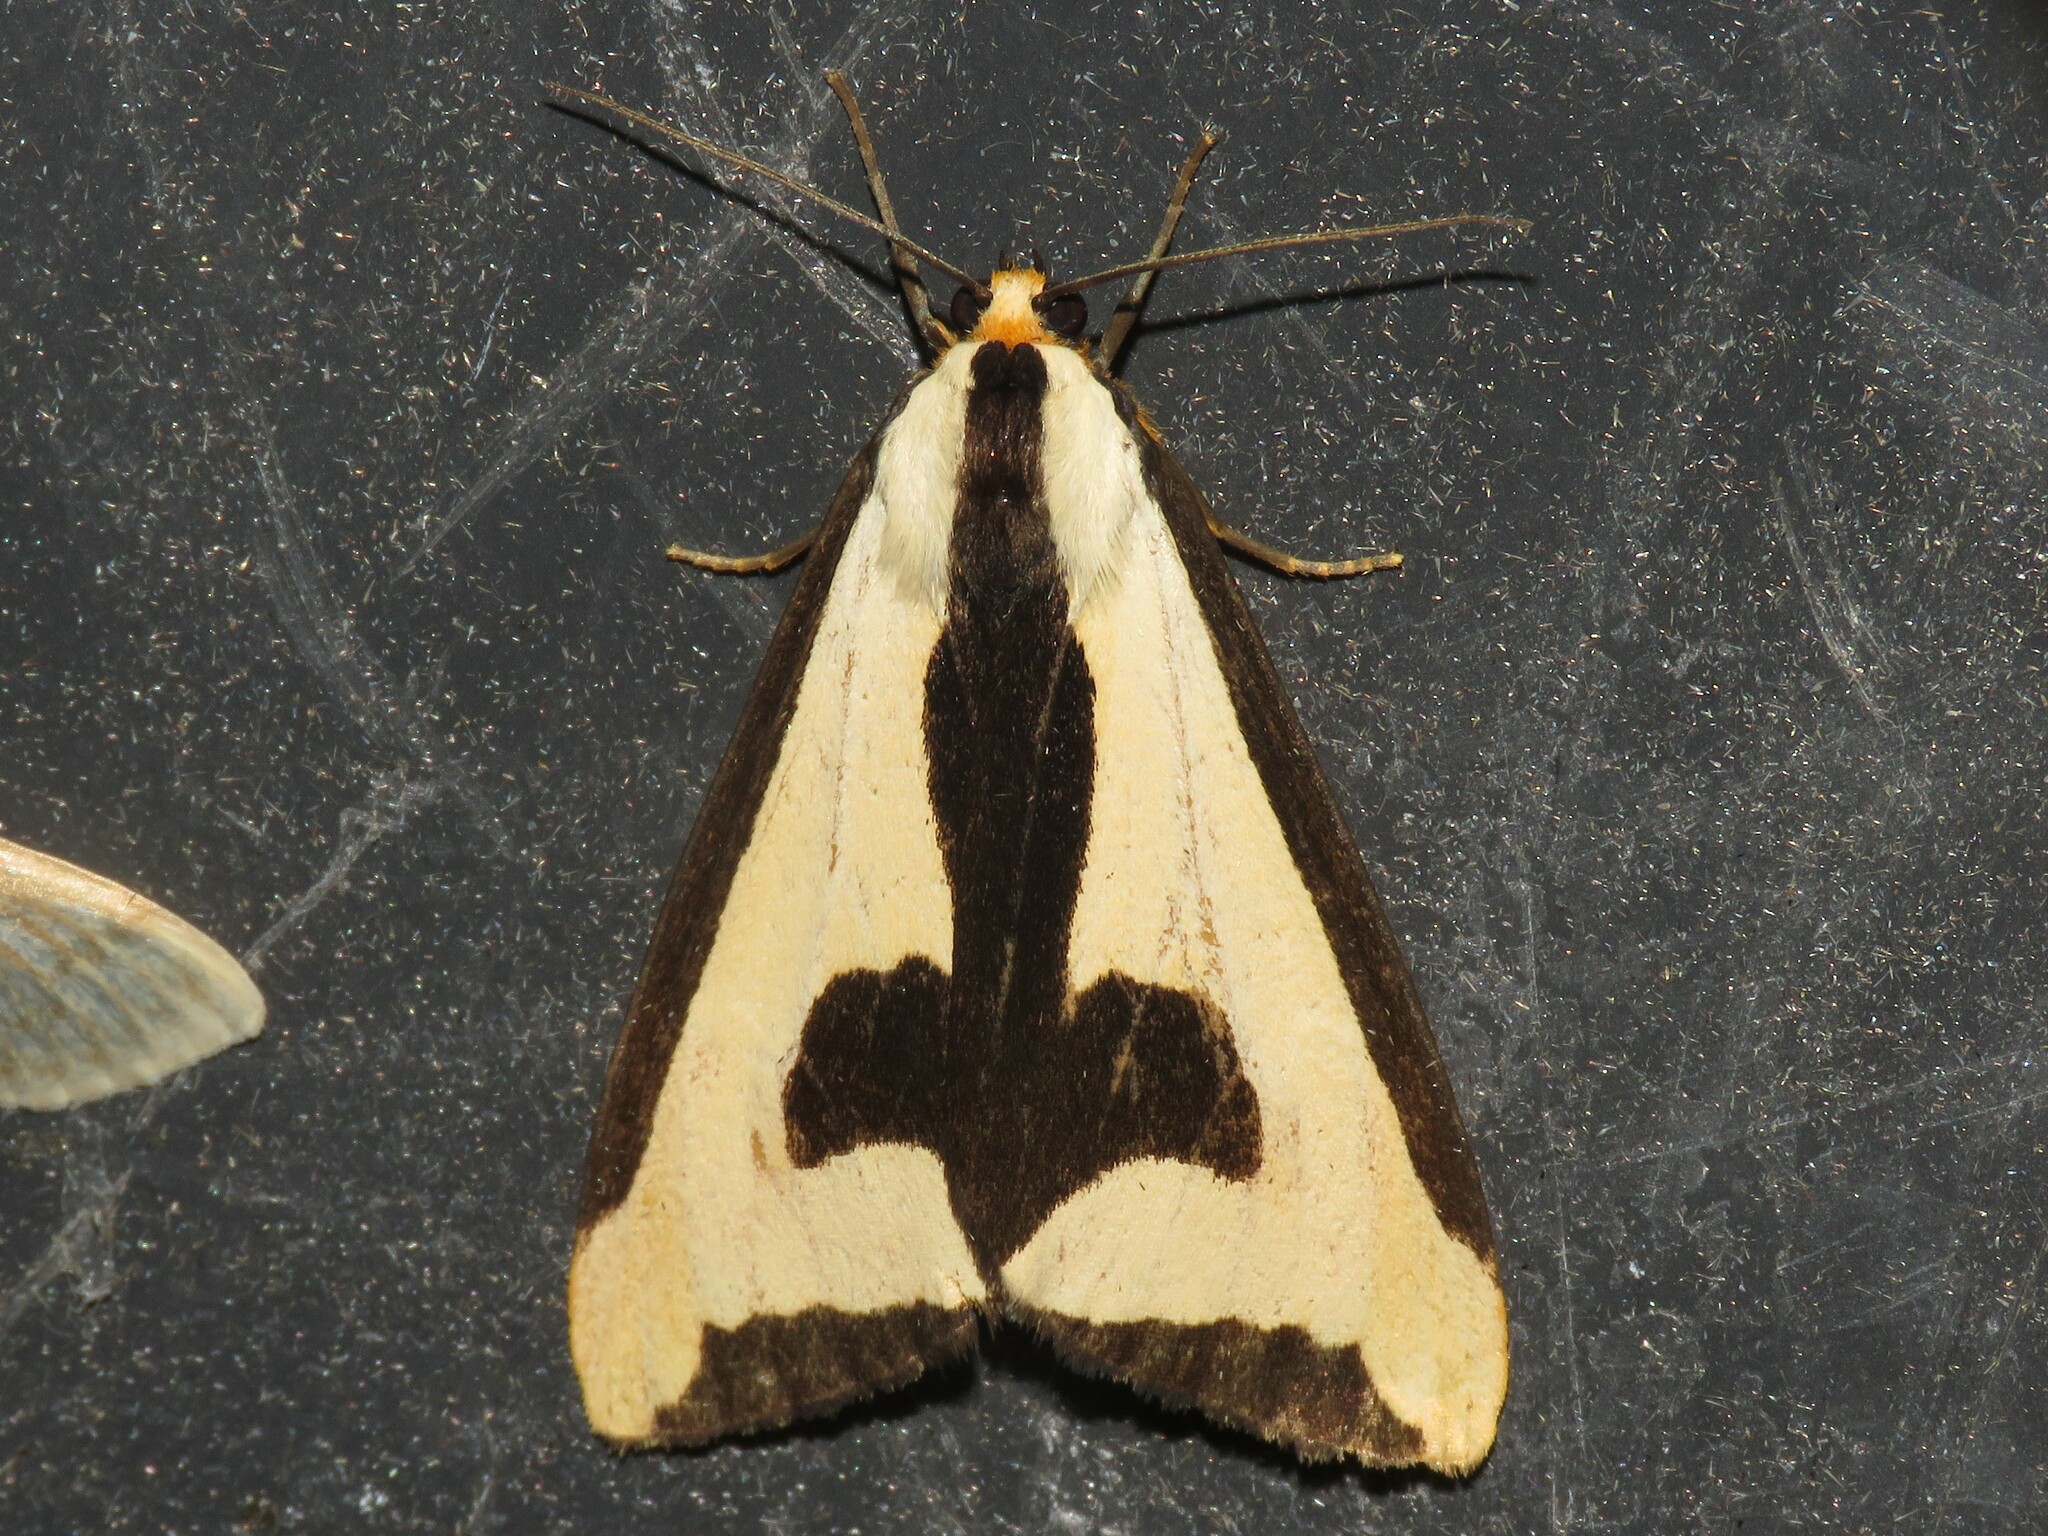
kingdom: Animalia
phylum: Arthropoda
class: Insecta
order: Lepidoptera
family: Erebidae
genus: Haploa
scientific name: Haploa clymene
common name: Clymene moth
